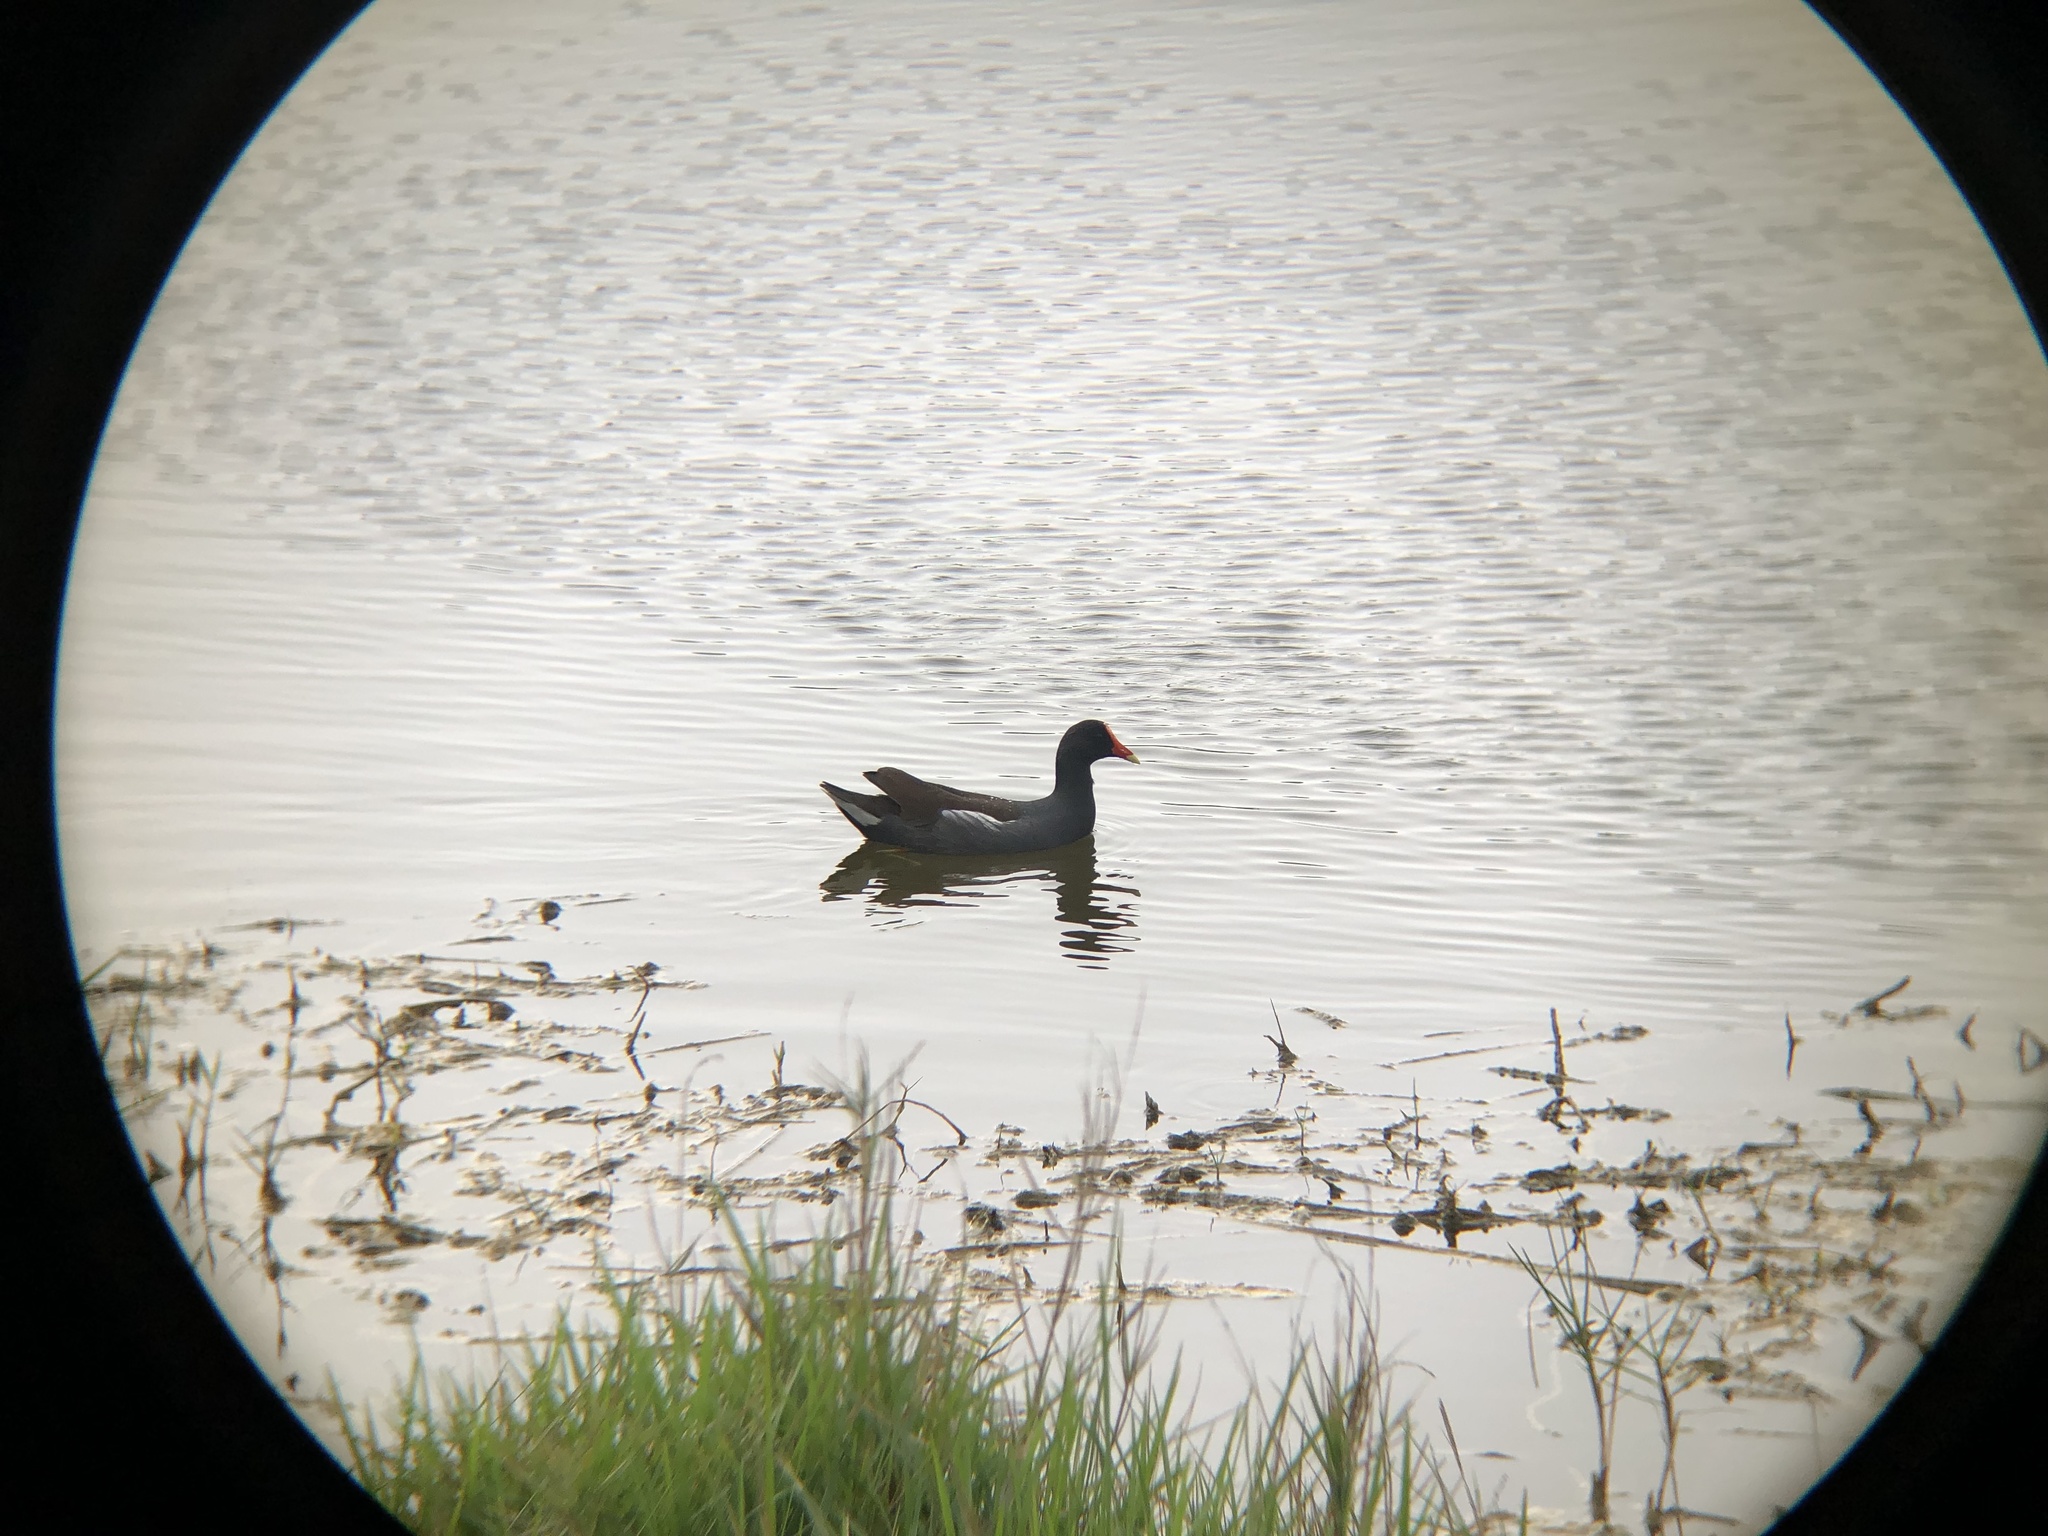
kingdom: Animalia
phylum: Chordata
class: Aves
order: Gruiformes
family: Rallidae
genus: Gallinula
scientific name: Gallinula chloropus
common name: Common moorhen
